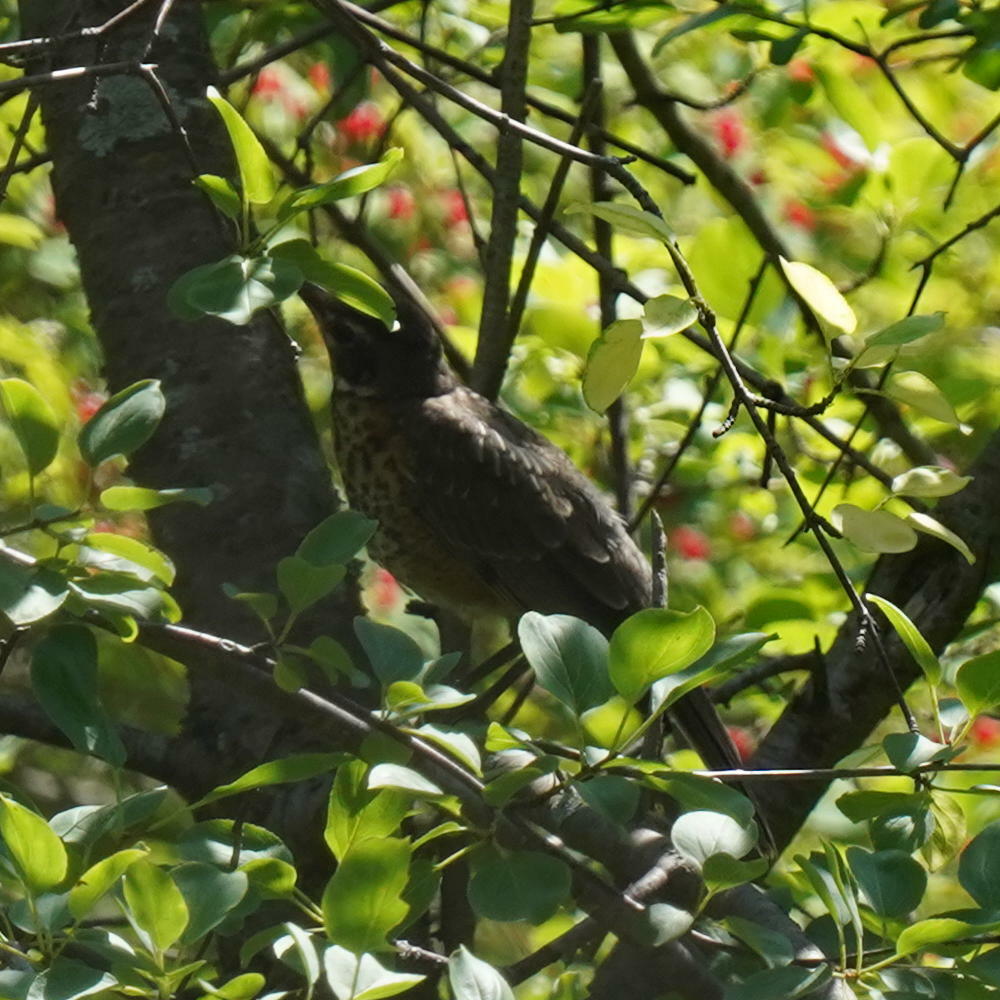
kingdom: Animalia
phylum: Chordata
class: Aves
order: Passeriformes
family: Turdidae
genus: Turdus
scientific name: Turdus migratorius
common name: American robin
